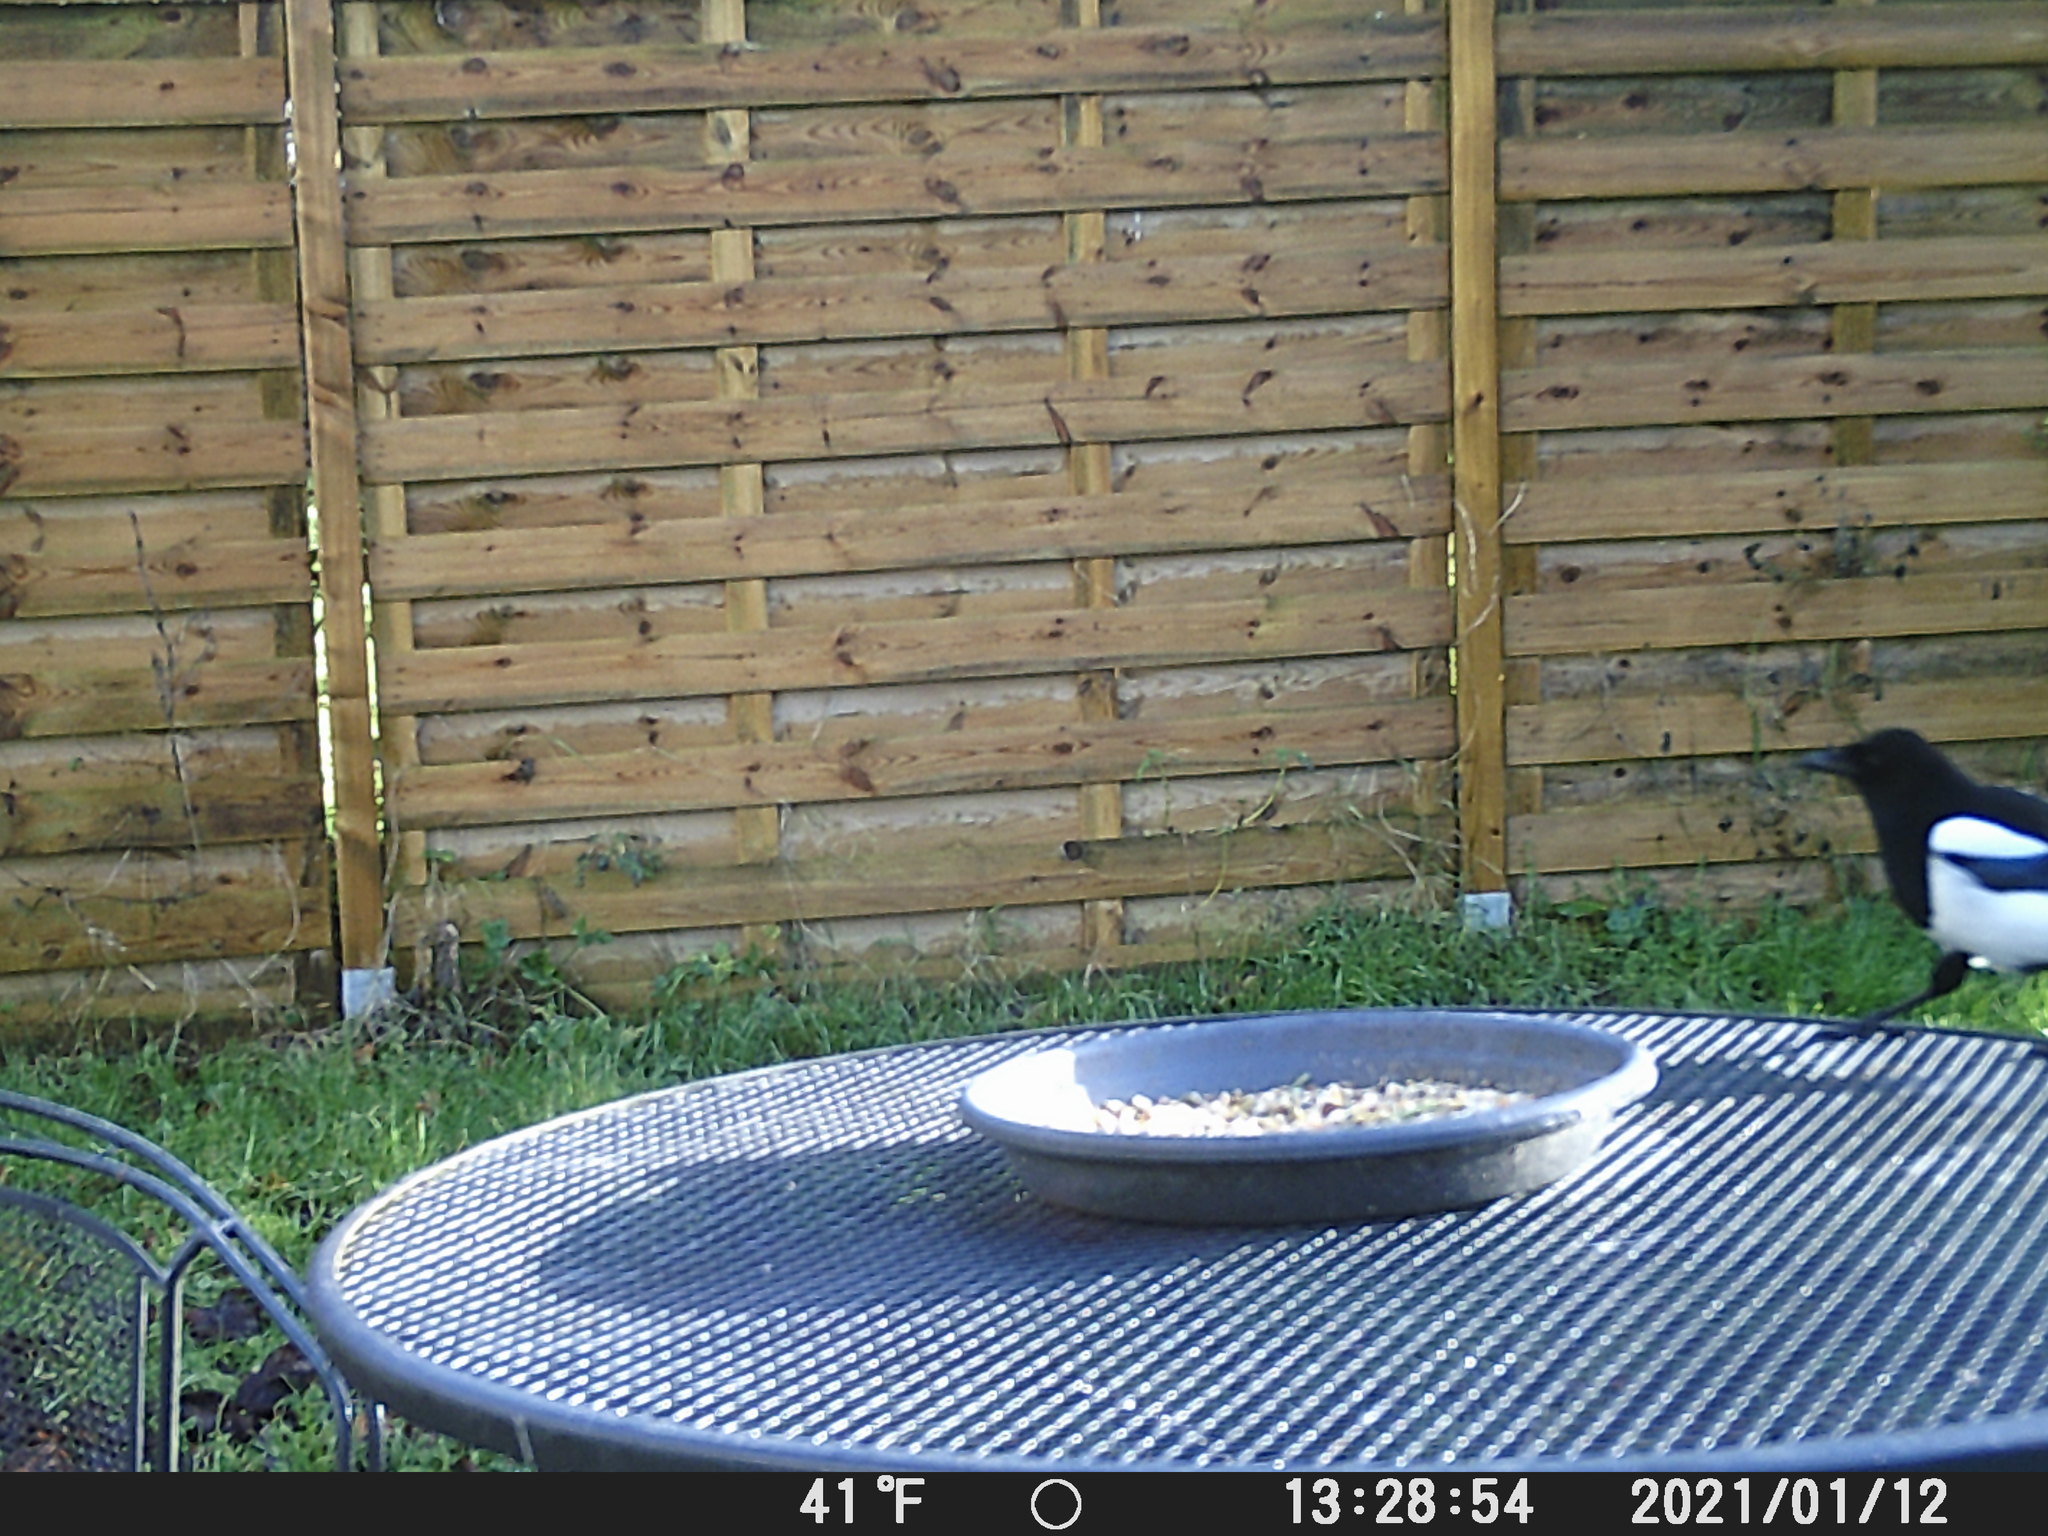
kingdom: Animalia
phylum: Chordata
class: Aves
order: Passeriformes
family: Corvidae
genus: Pica
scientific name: Pica pica
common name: Eurasian magpie
